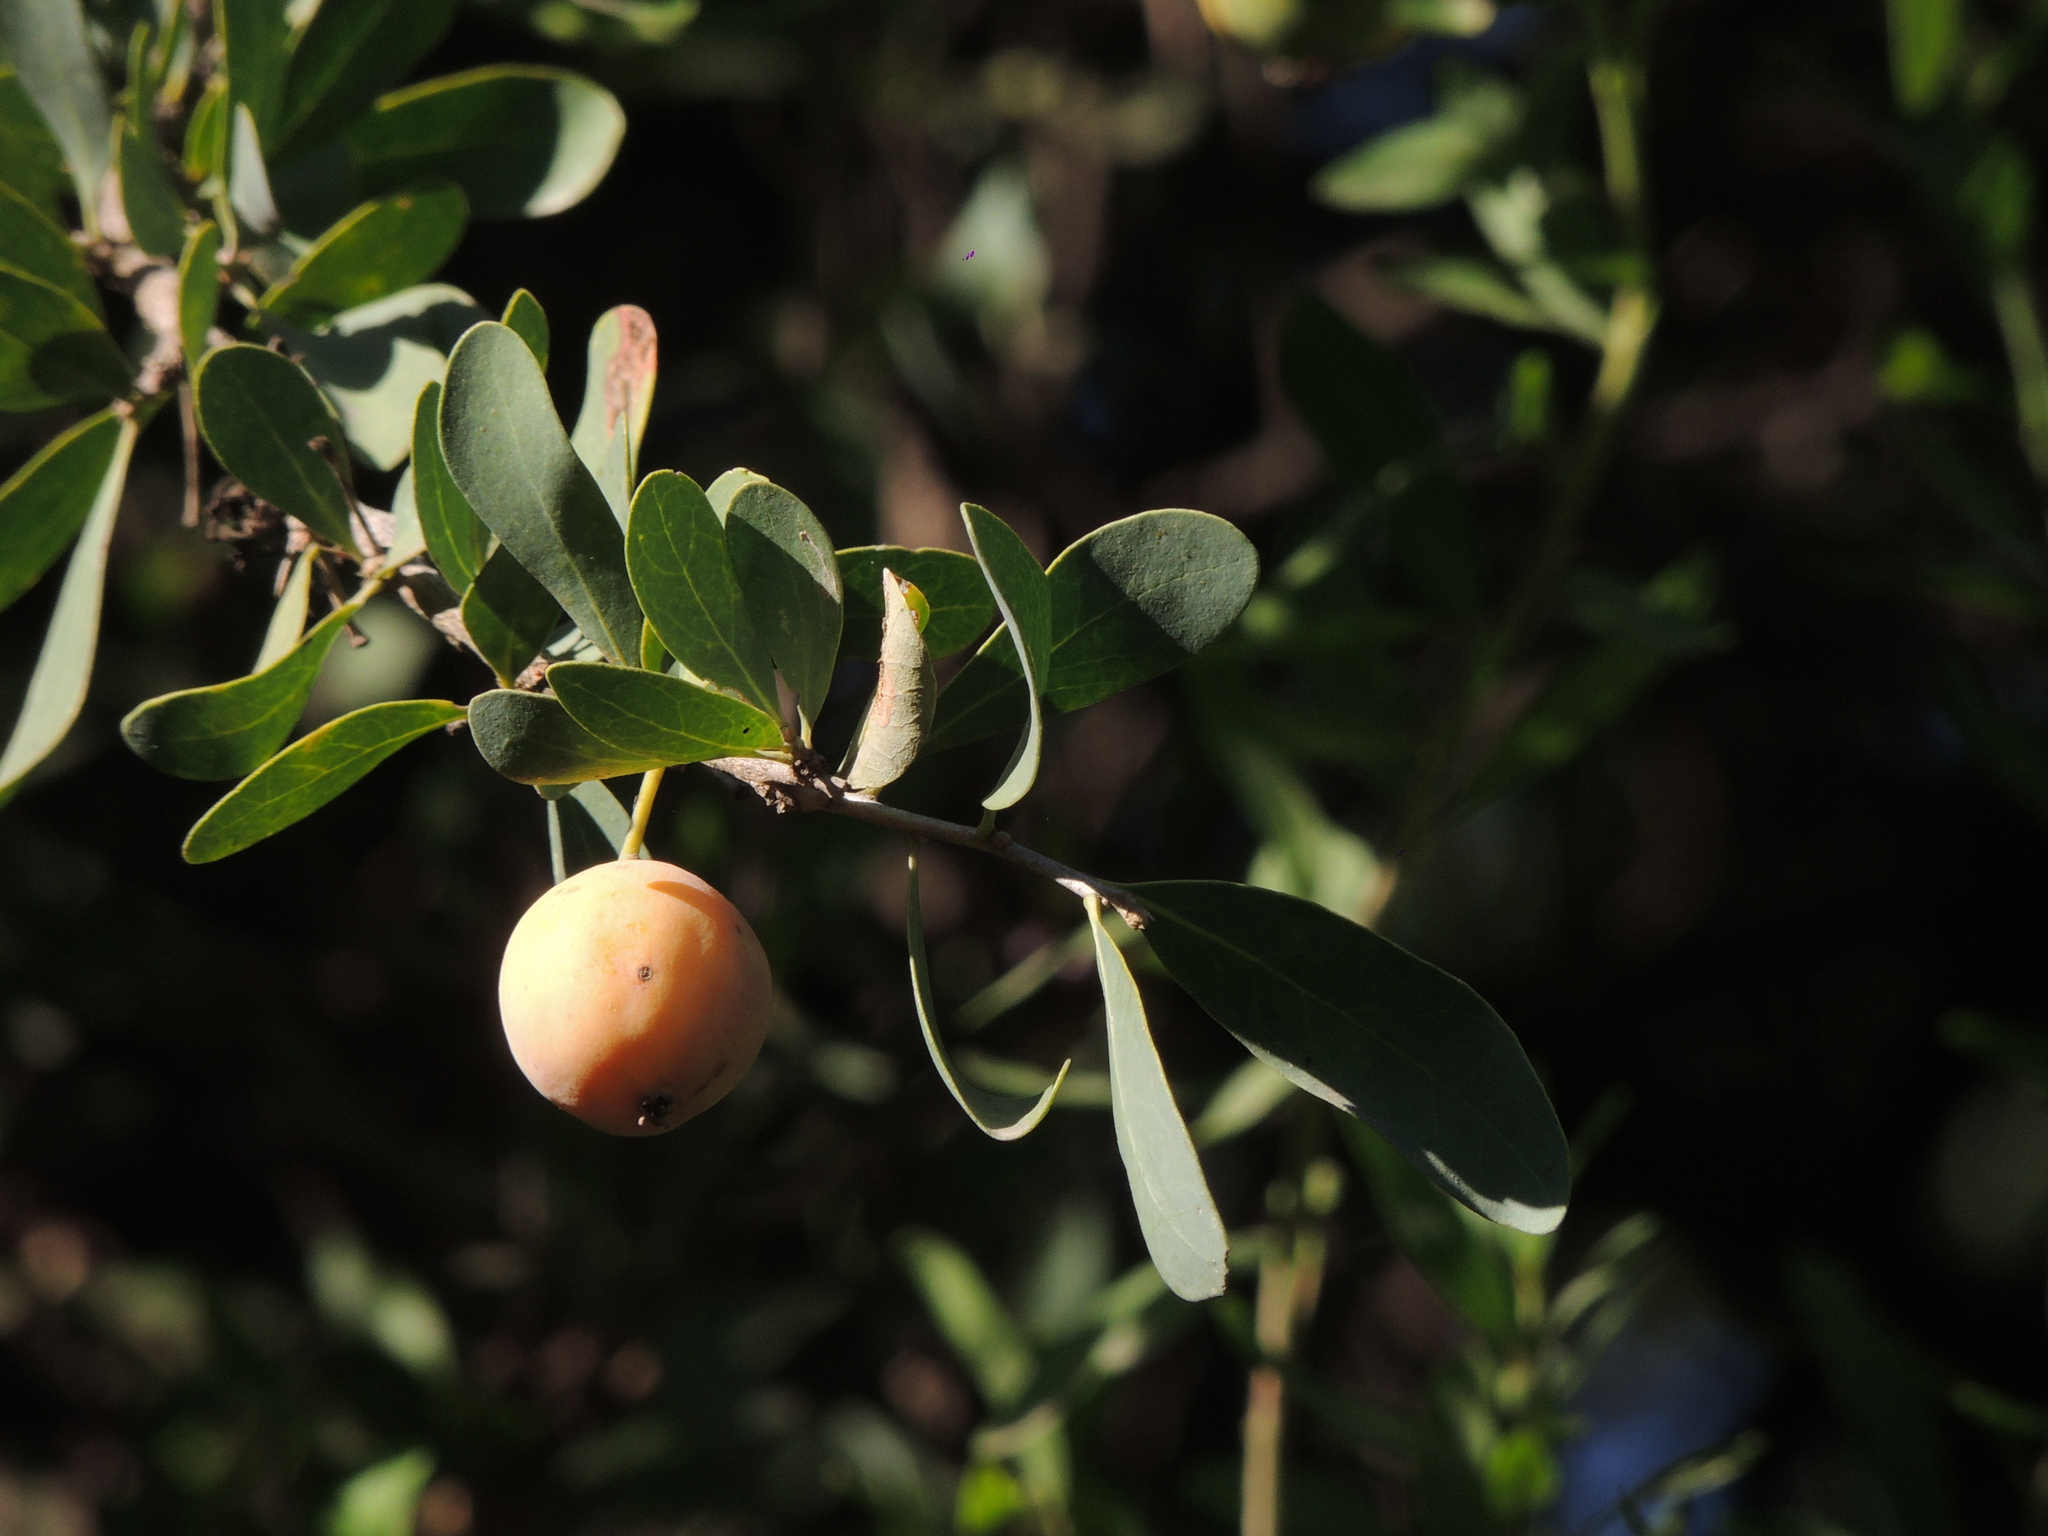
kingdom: Plantae
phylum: Tracheophyta
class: Magnoliopsida
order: Santalales
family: Cervantesiaceae
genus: Acanthosyris
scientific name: Acanthosyris spinescens
